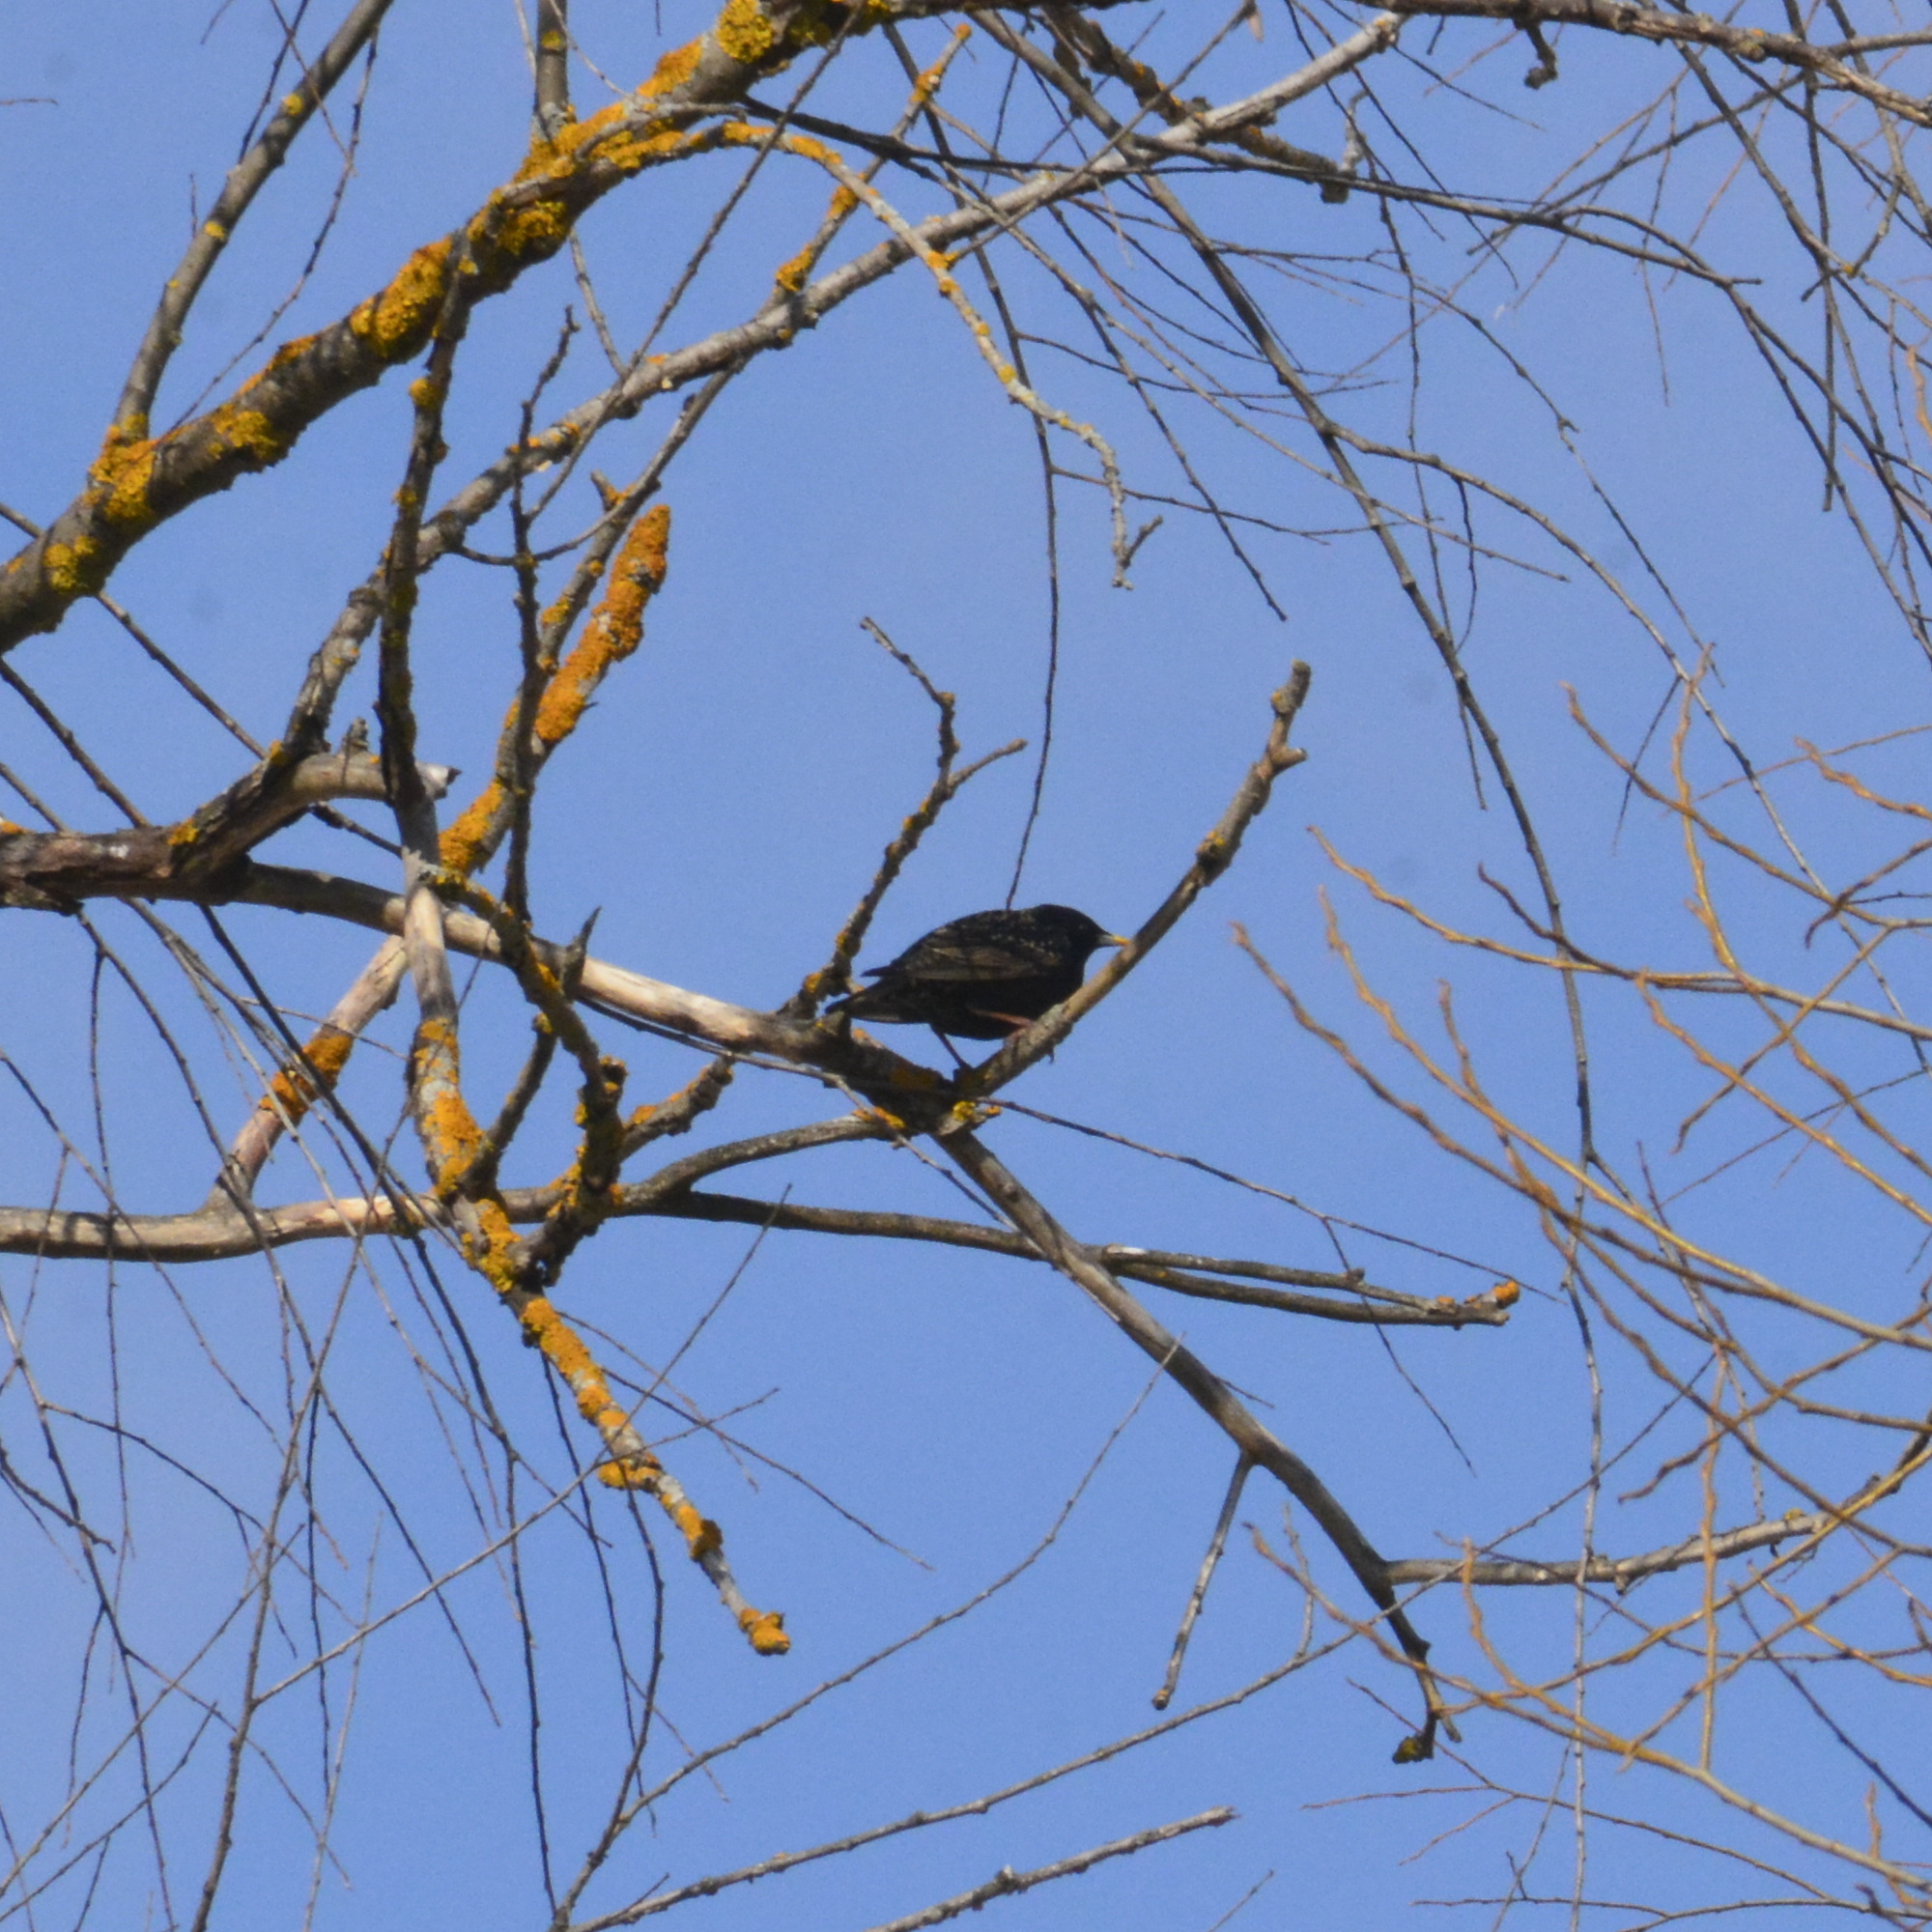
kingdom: Animalia
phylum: Chordata
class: Aves
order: Passeriformes
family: Sturnidae
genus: Sturnus
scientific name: Sturnus vulgaris
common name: Common starling
